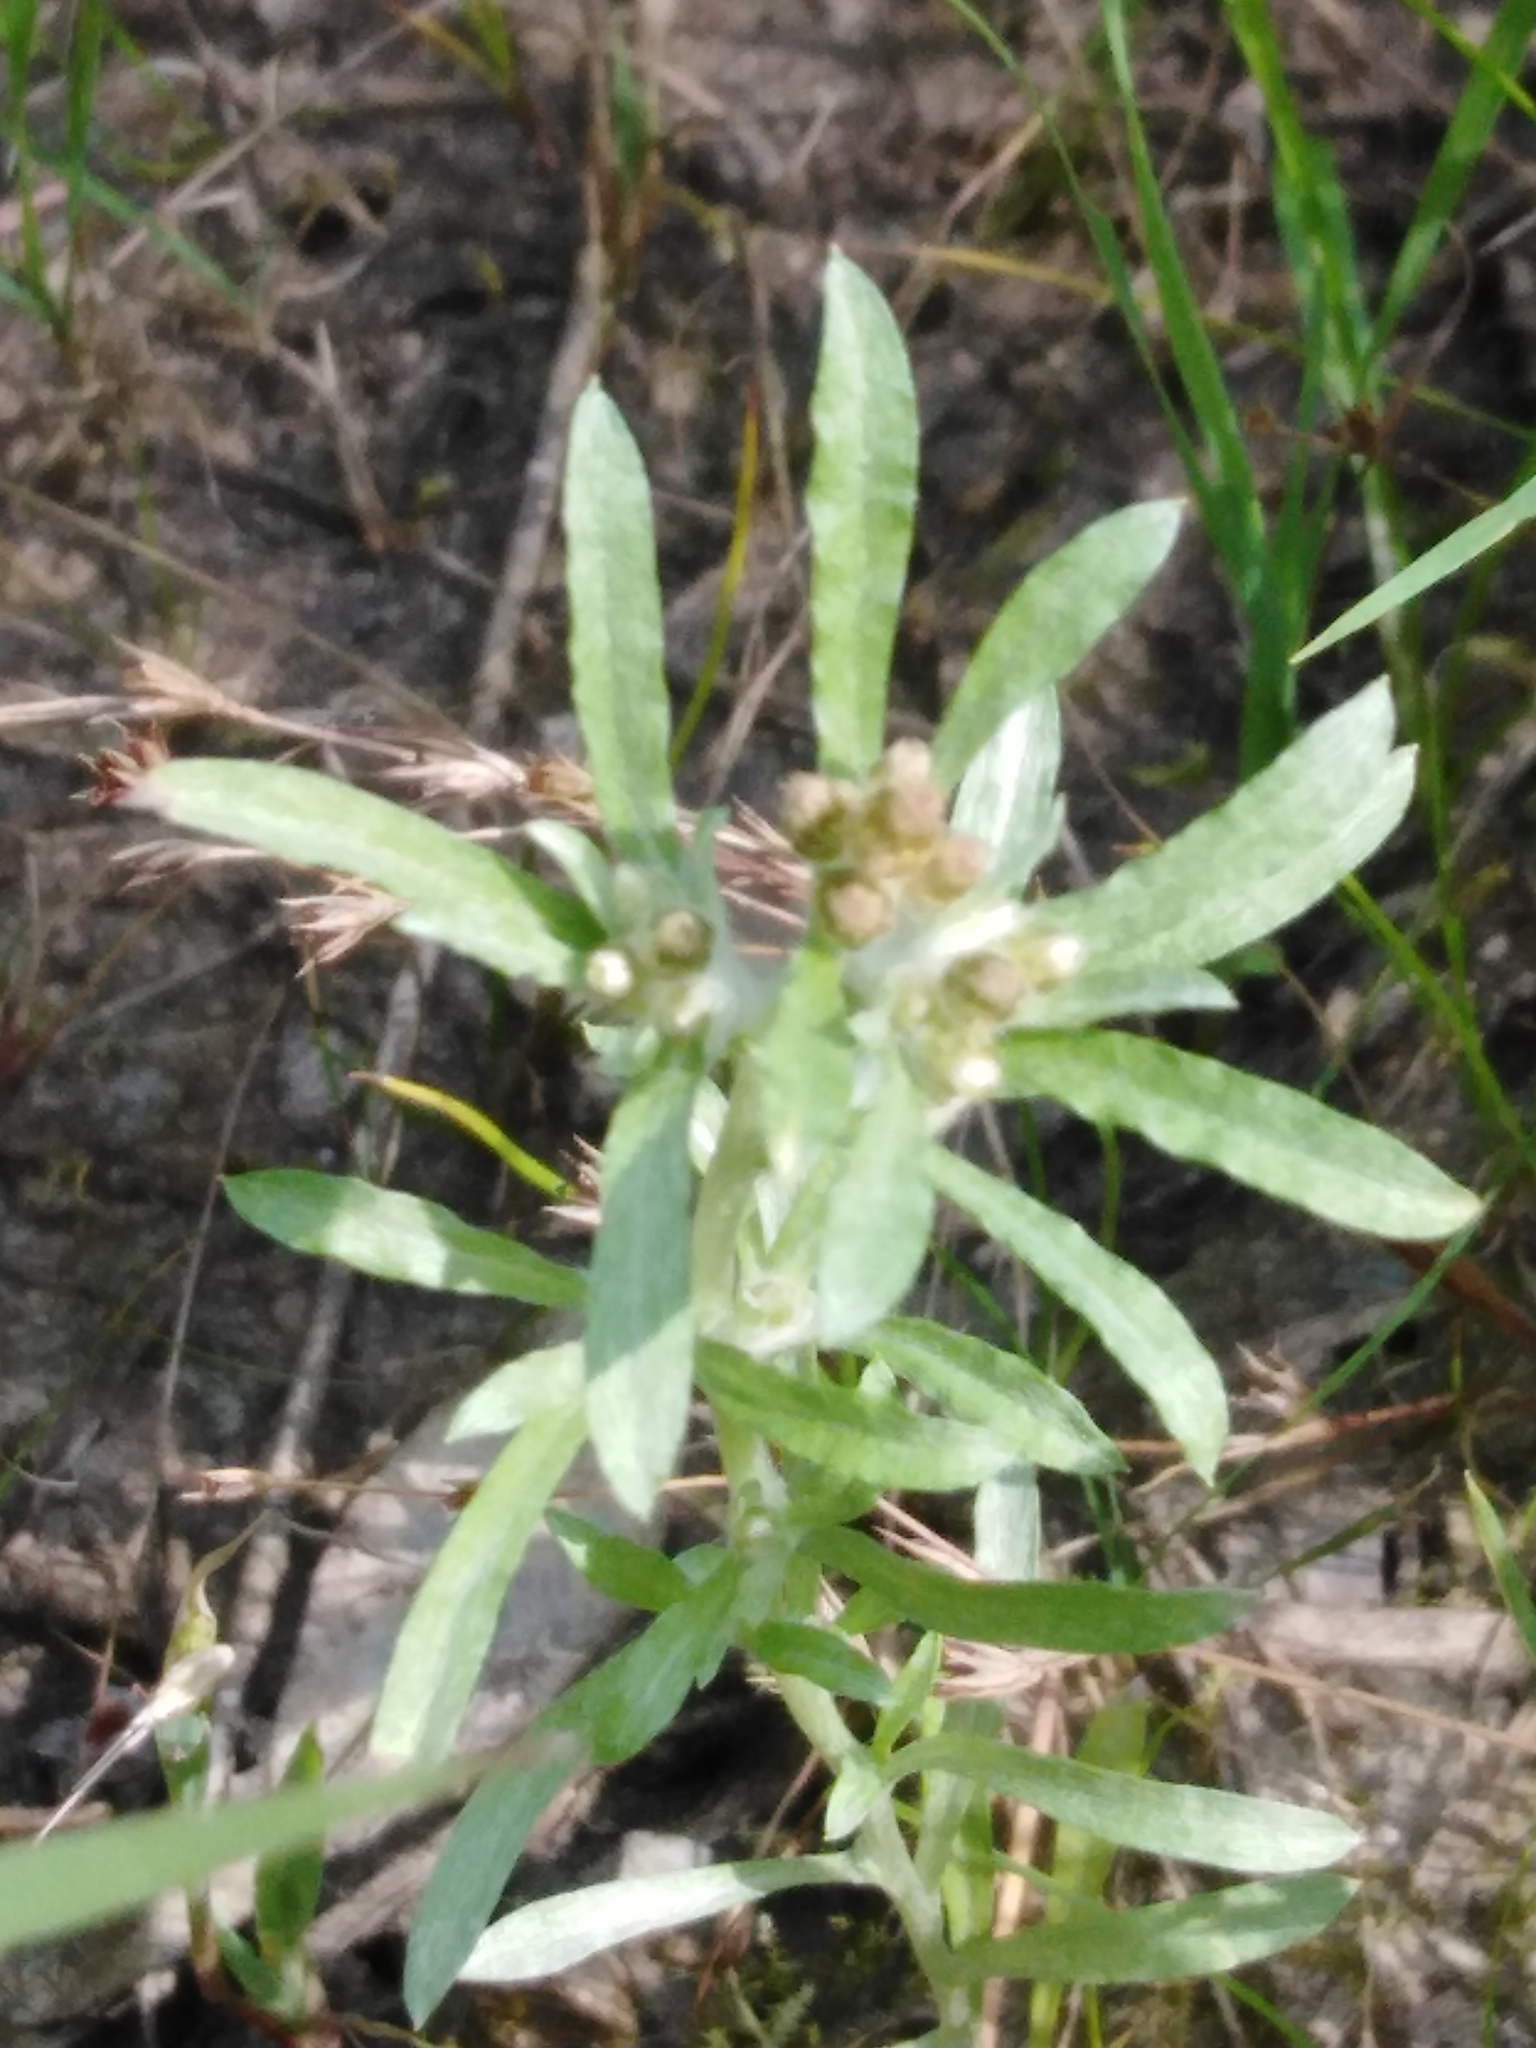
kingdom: Plantae
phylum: Tracheophyta
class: Magnoliopsida
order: Asterales
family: Asteraceae
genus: Gnaphalium
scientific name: Gnaphalium rossicum
